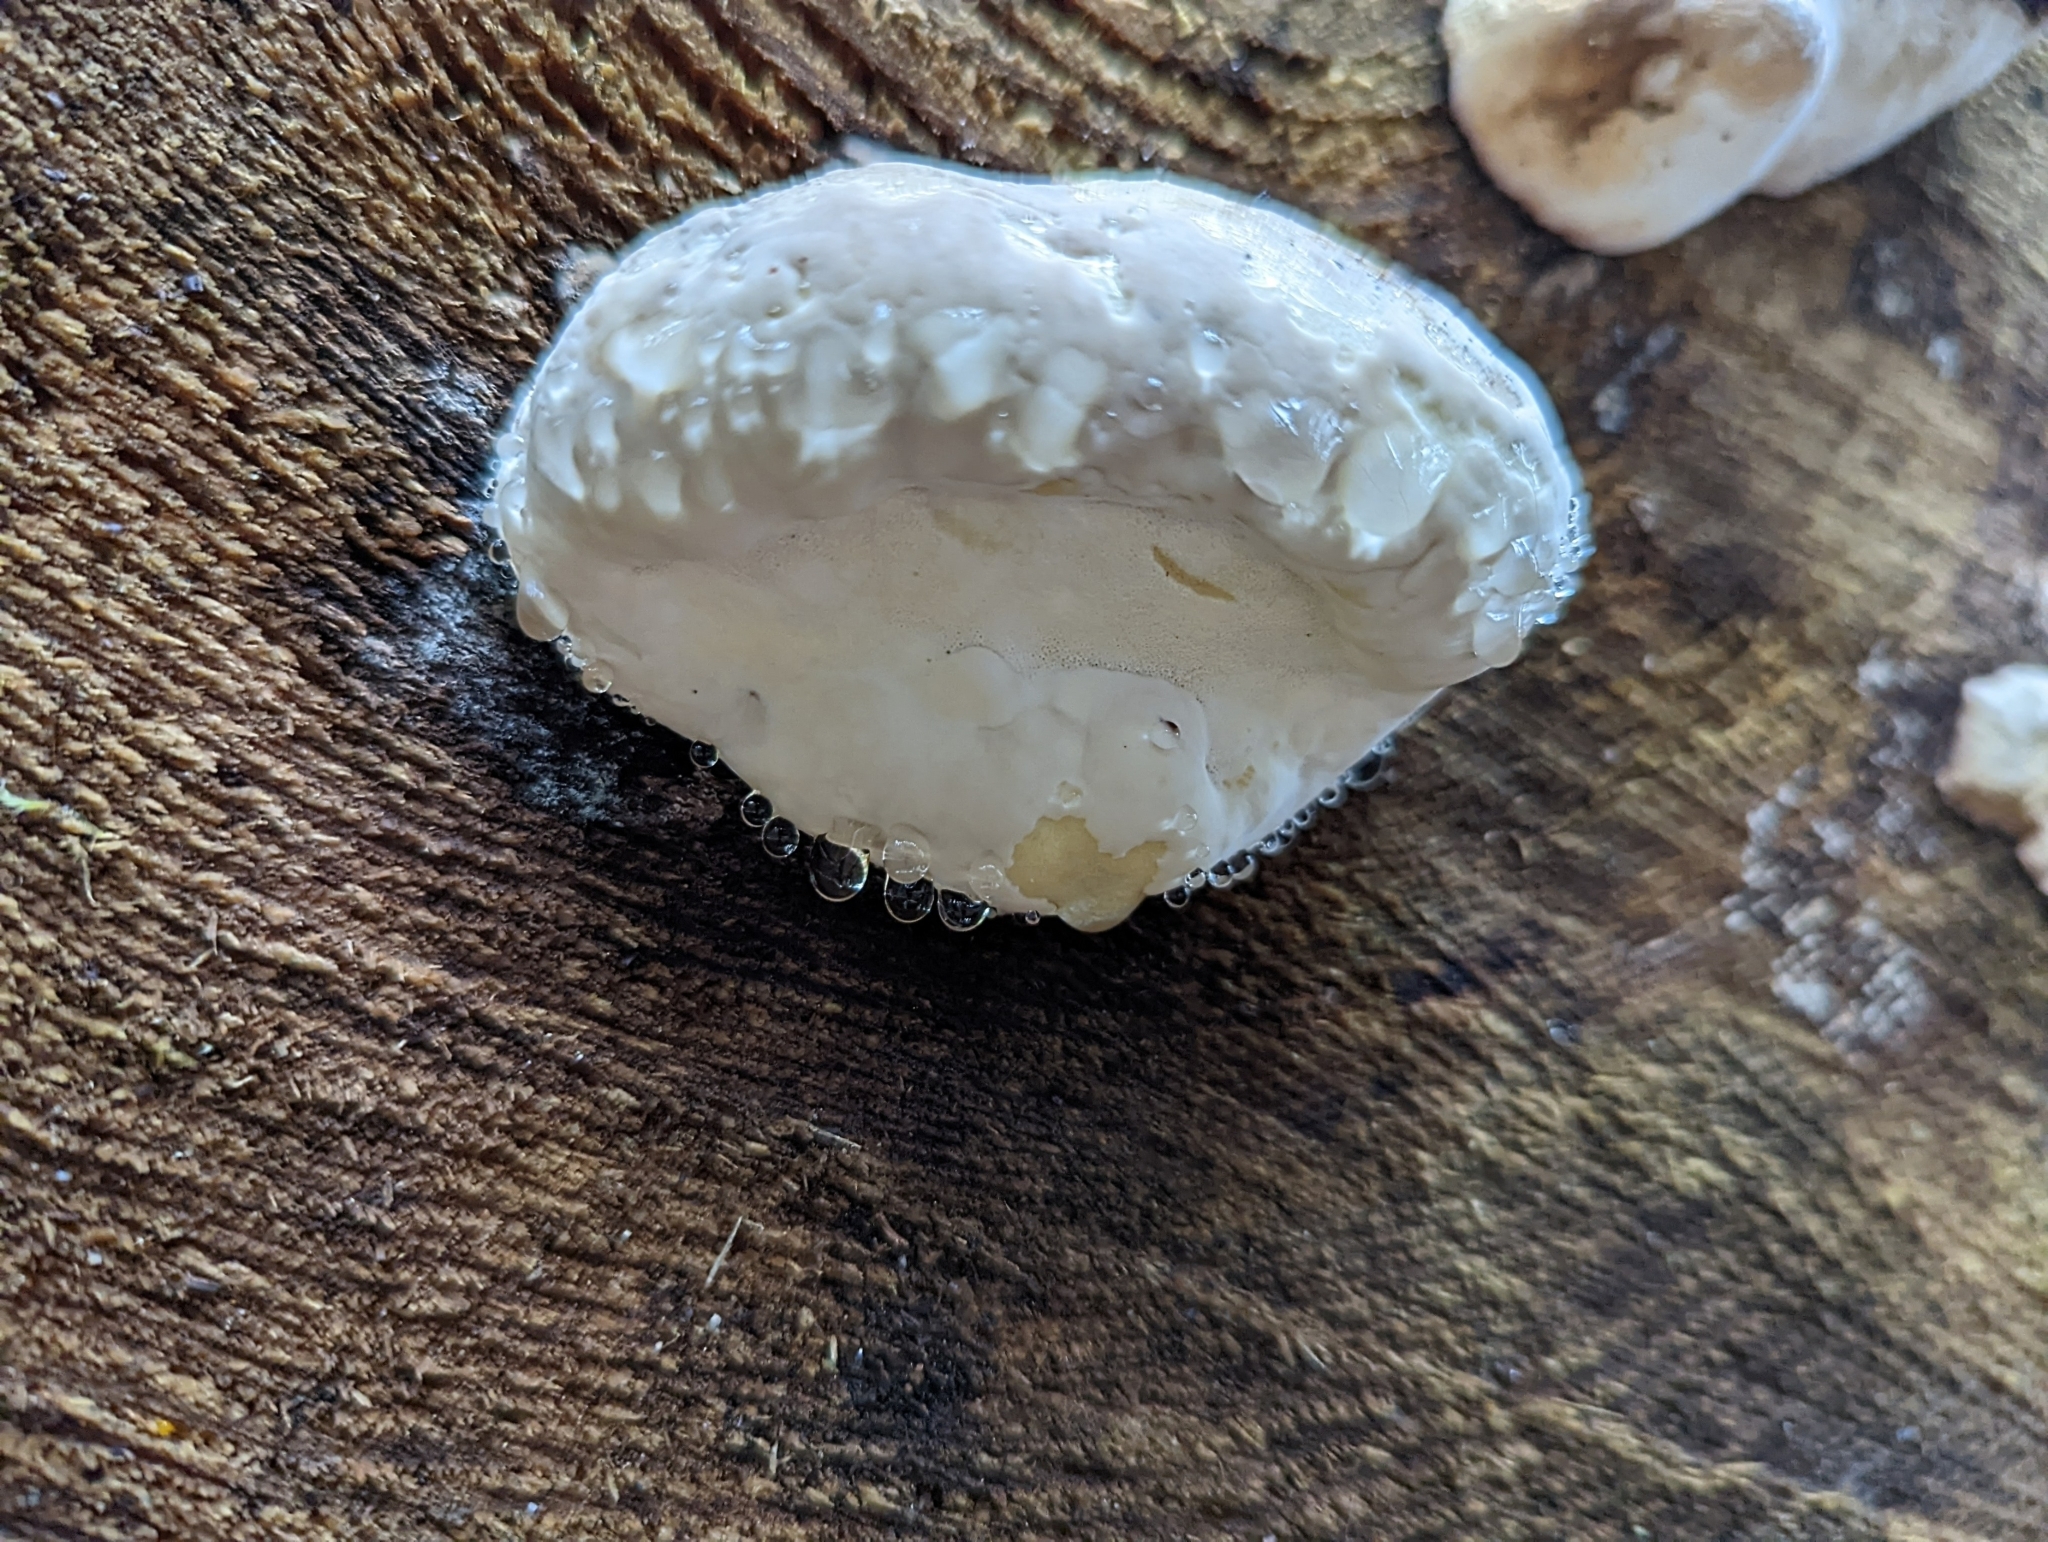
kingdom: Fungi
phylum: Basidiomycota
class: Agaricomycetes
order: Polyporales
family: Fomitopsidaceae
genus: Fomitopsis
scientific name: Fomitopsis mounceae
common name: Northern red belt
